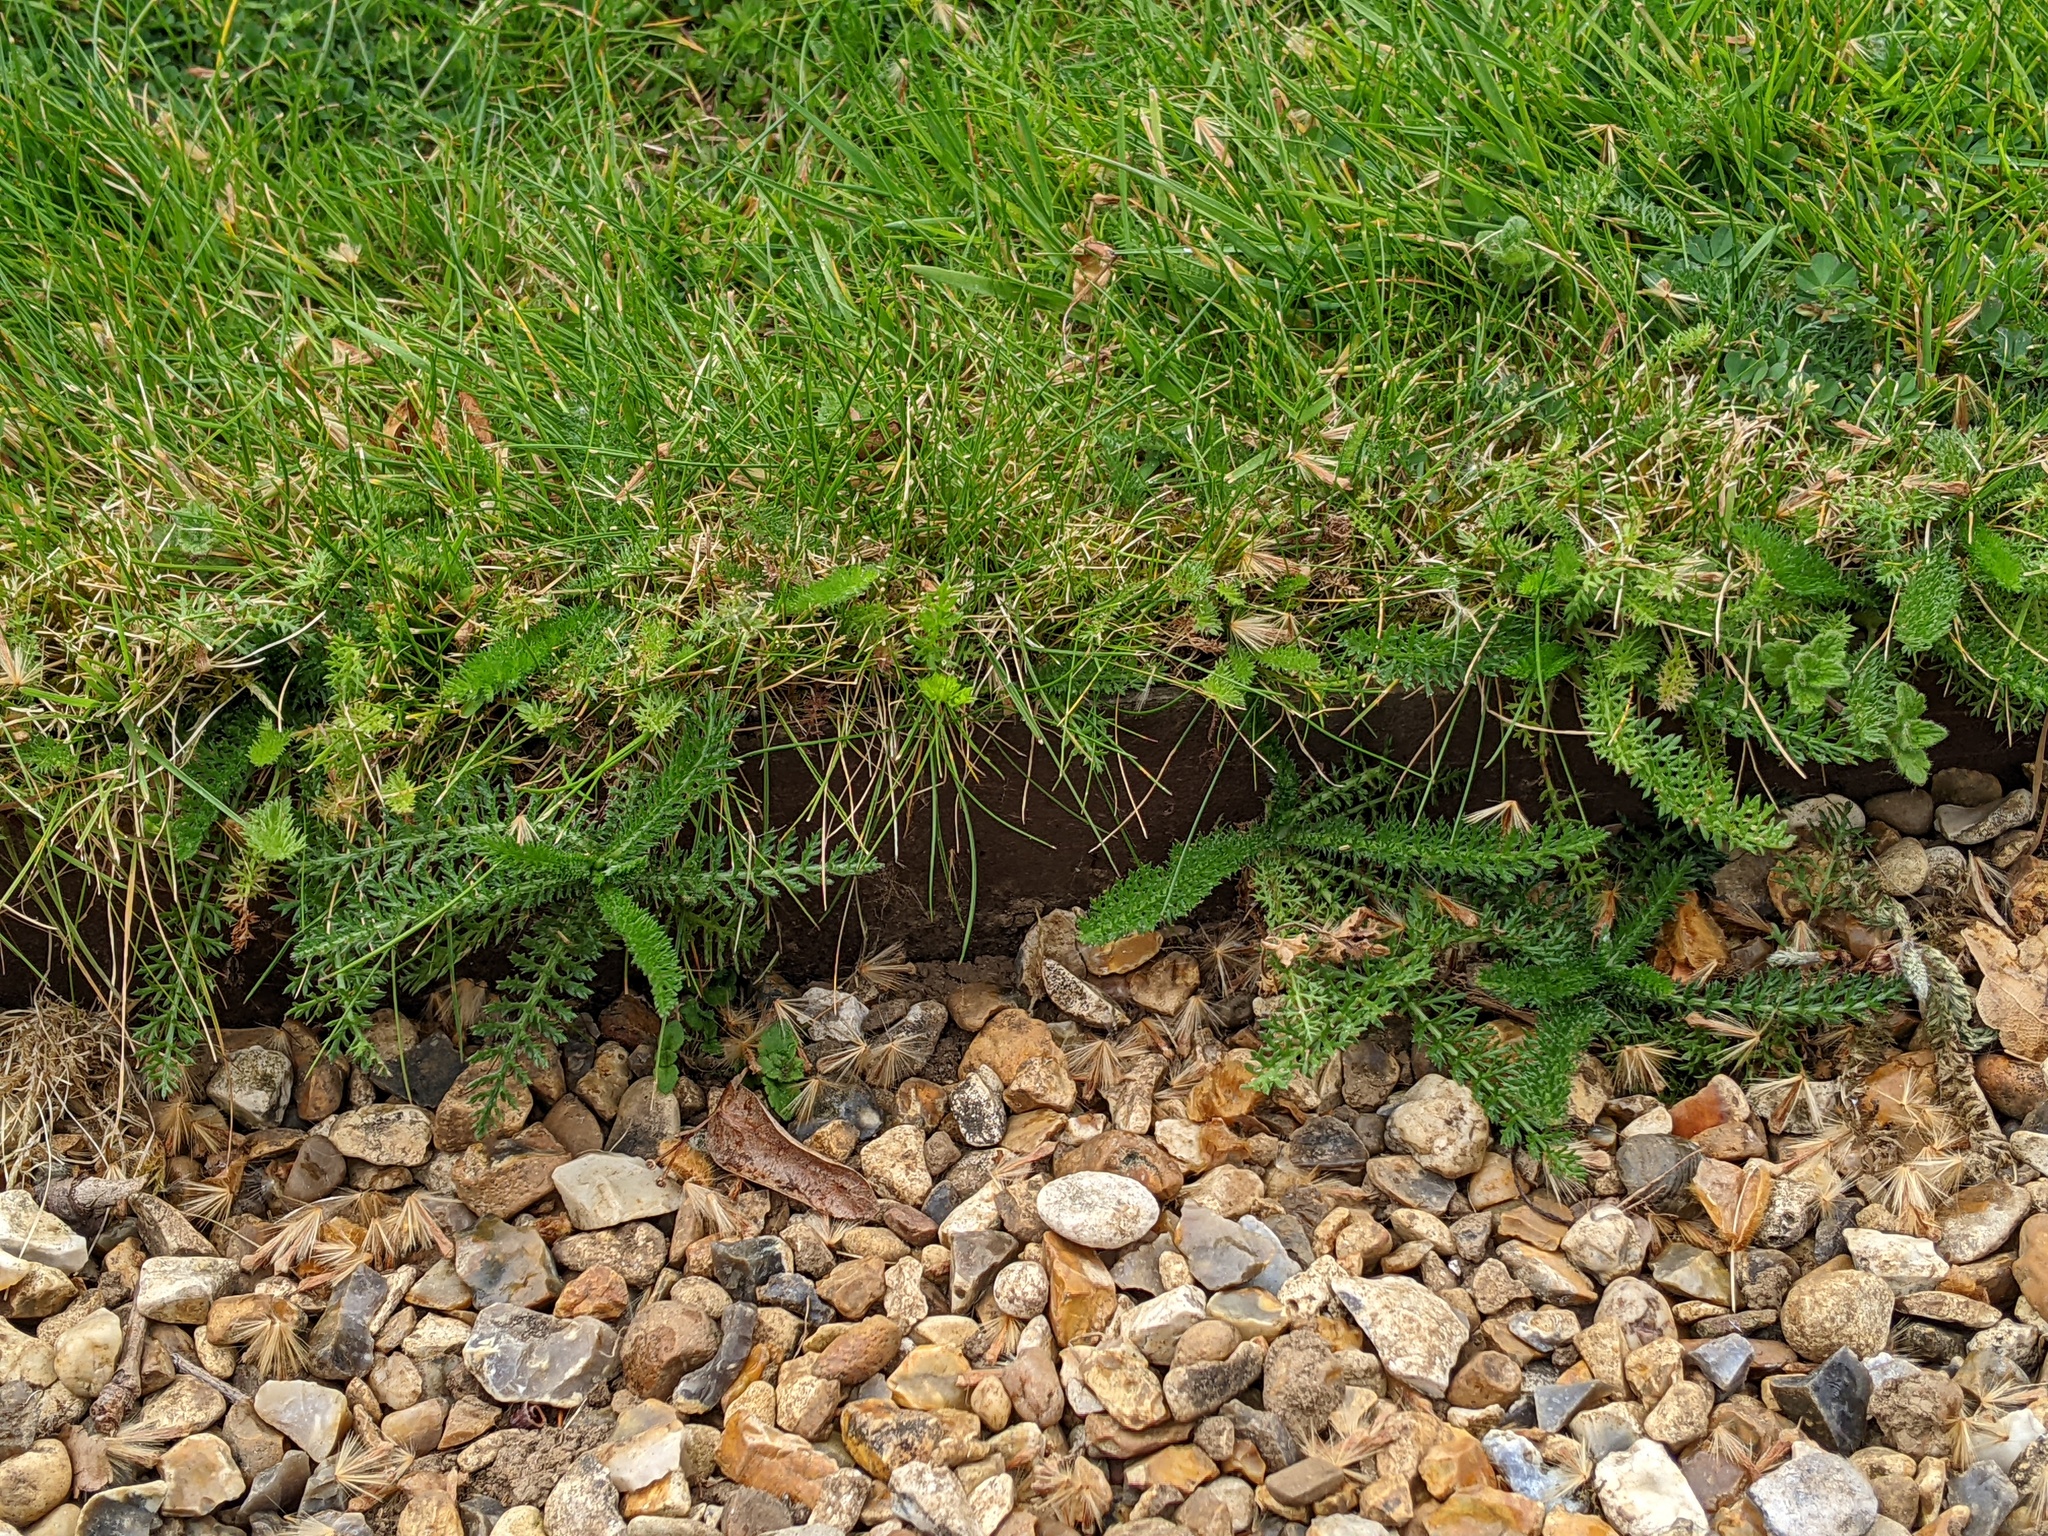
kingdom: Plantae
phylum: Tracheophyta
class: Magnoliopsida
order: Asterales
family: Asteraceae
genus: Achillea
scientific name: Achillea millefolium
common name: Yarrow
